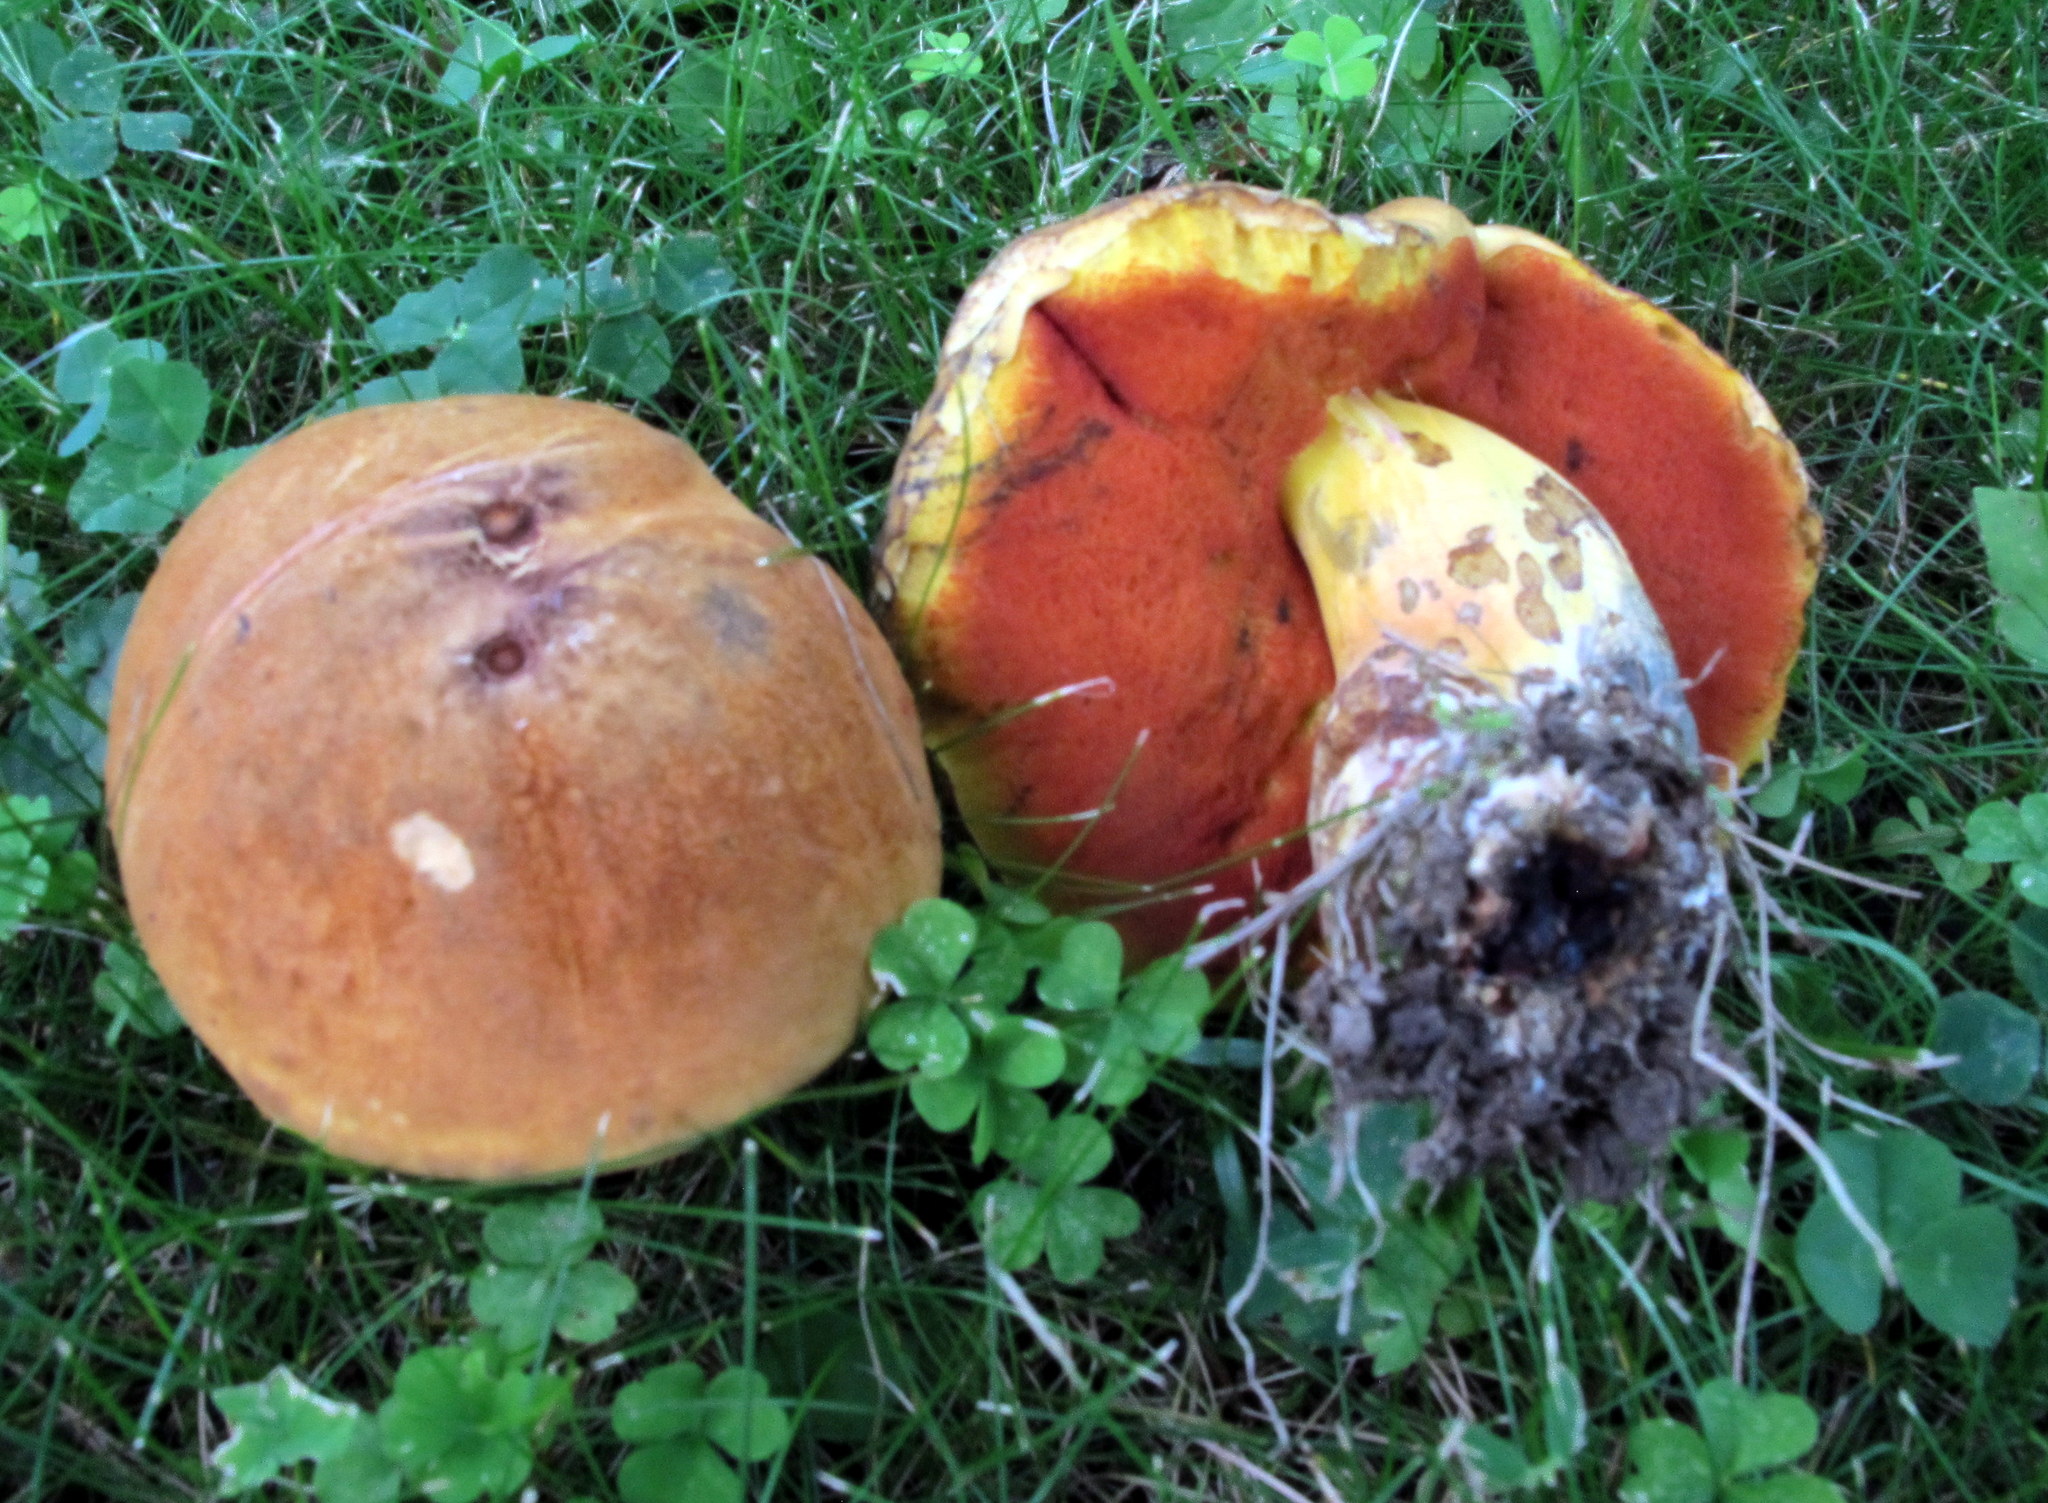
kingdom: Fungi
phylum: Basidiomycota
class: Agaricomycetes
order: Boletales
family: Boletaceae
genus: Boletus
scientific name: Boletus subvelutipes
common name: Red-mouth bolete
